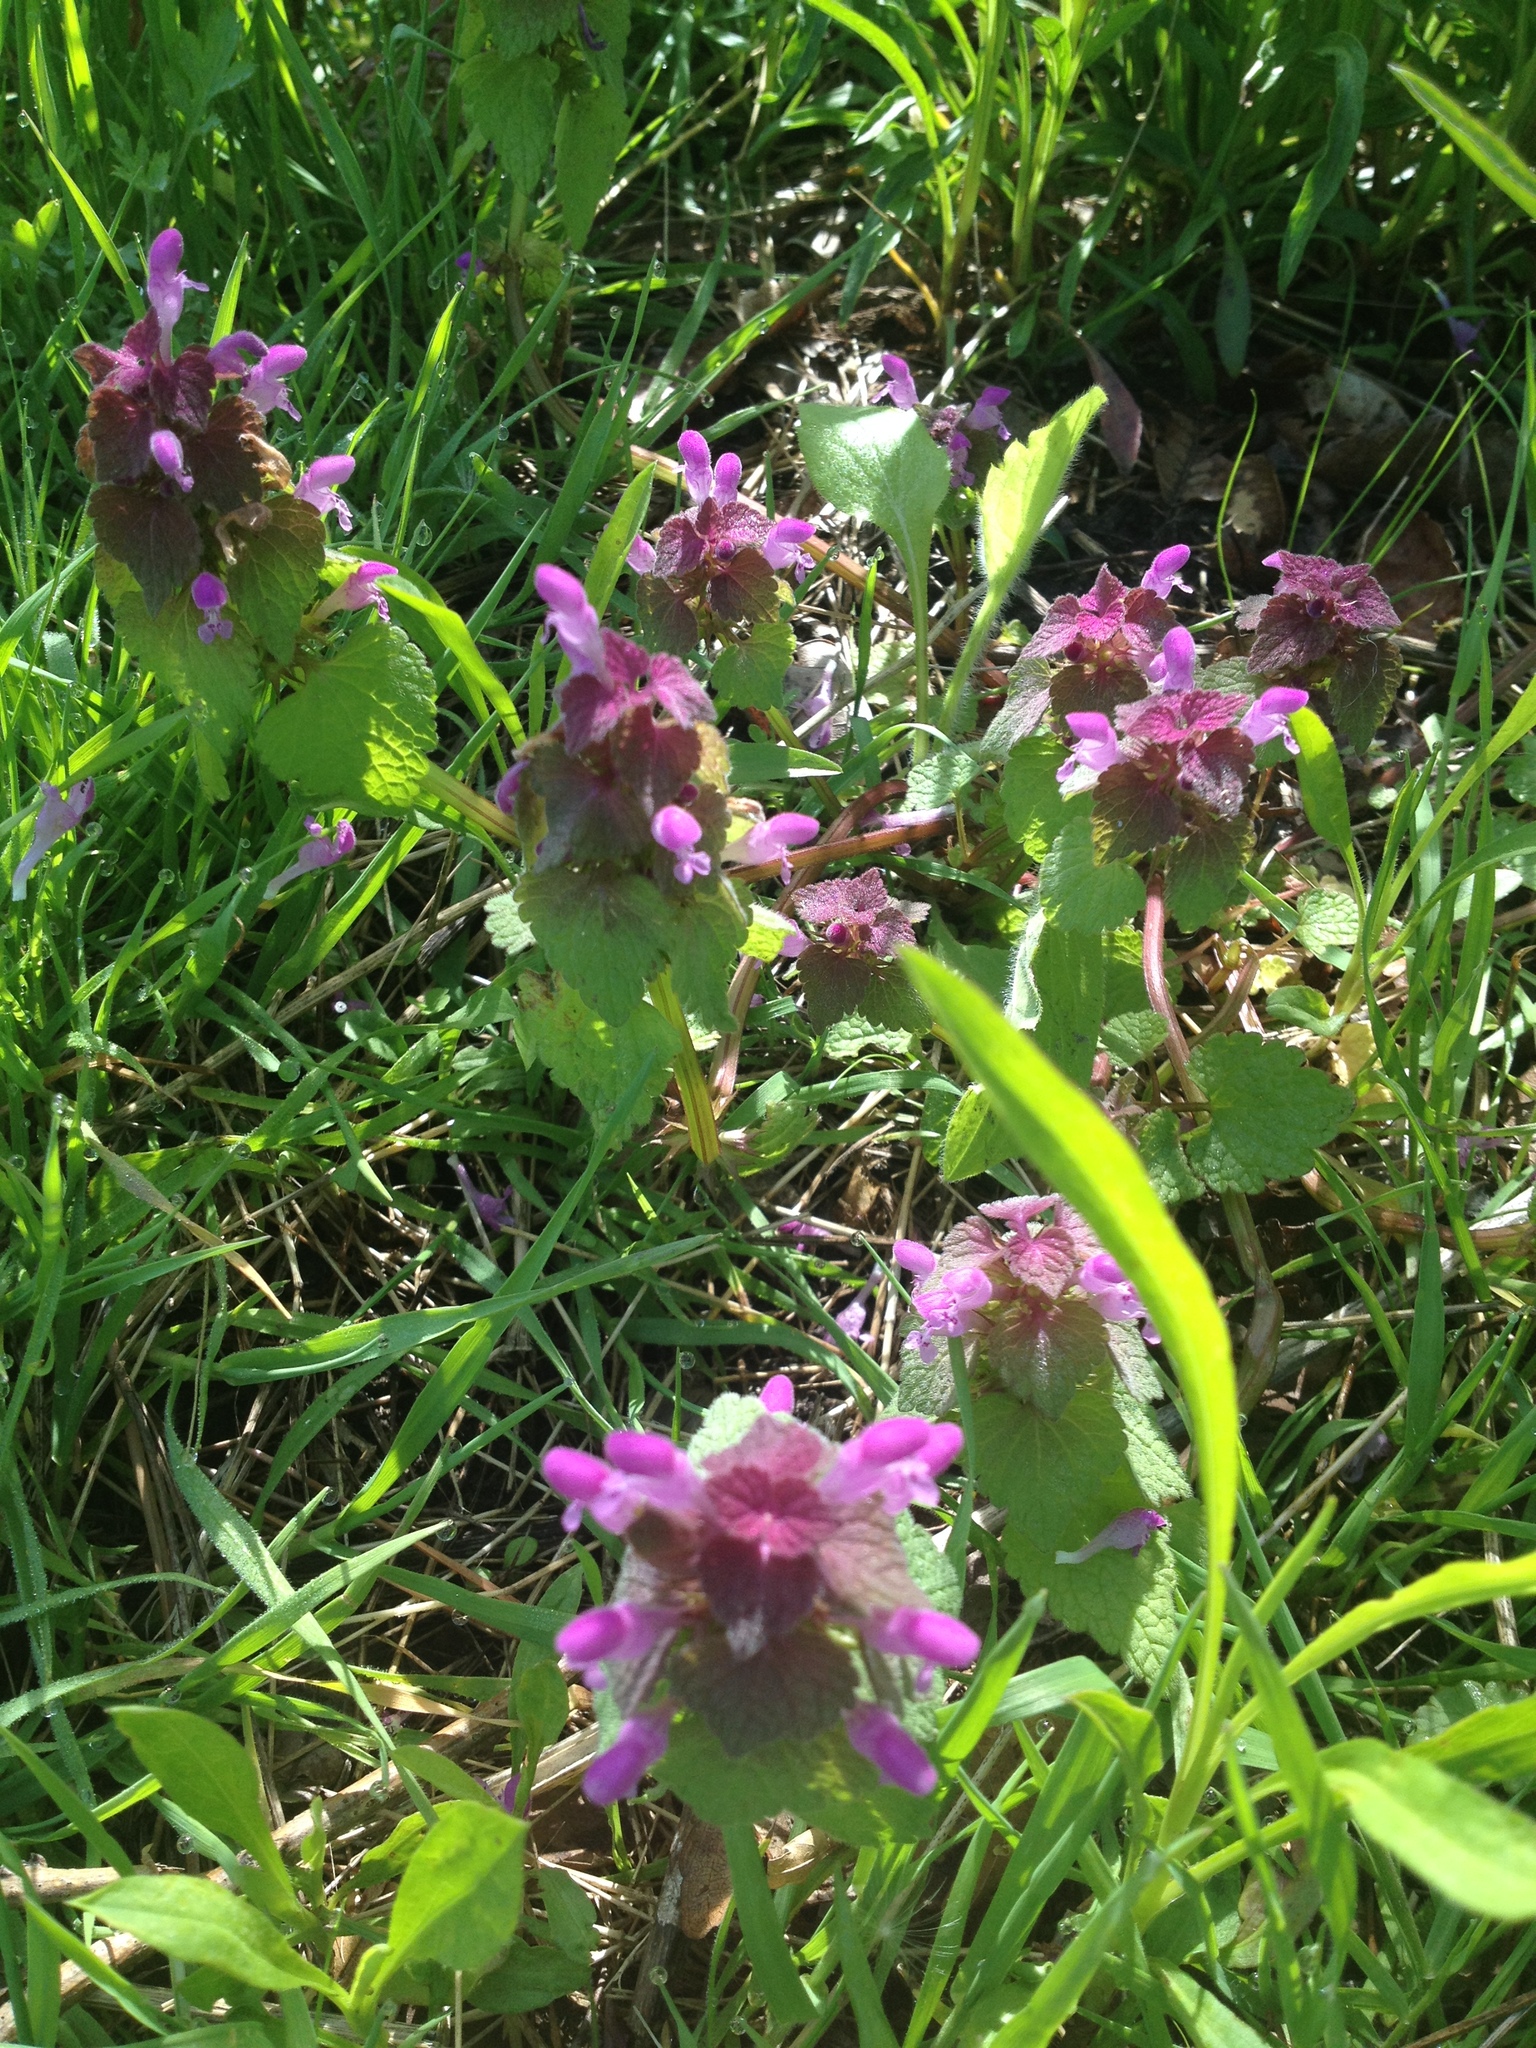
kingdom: Plantae
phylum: Tracheophyta
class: Magnoliopsida
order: Lamiales
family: Lamiaceae
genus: Lamium
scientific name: Lamium purpureum
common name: Red dead-nettle
